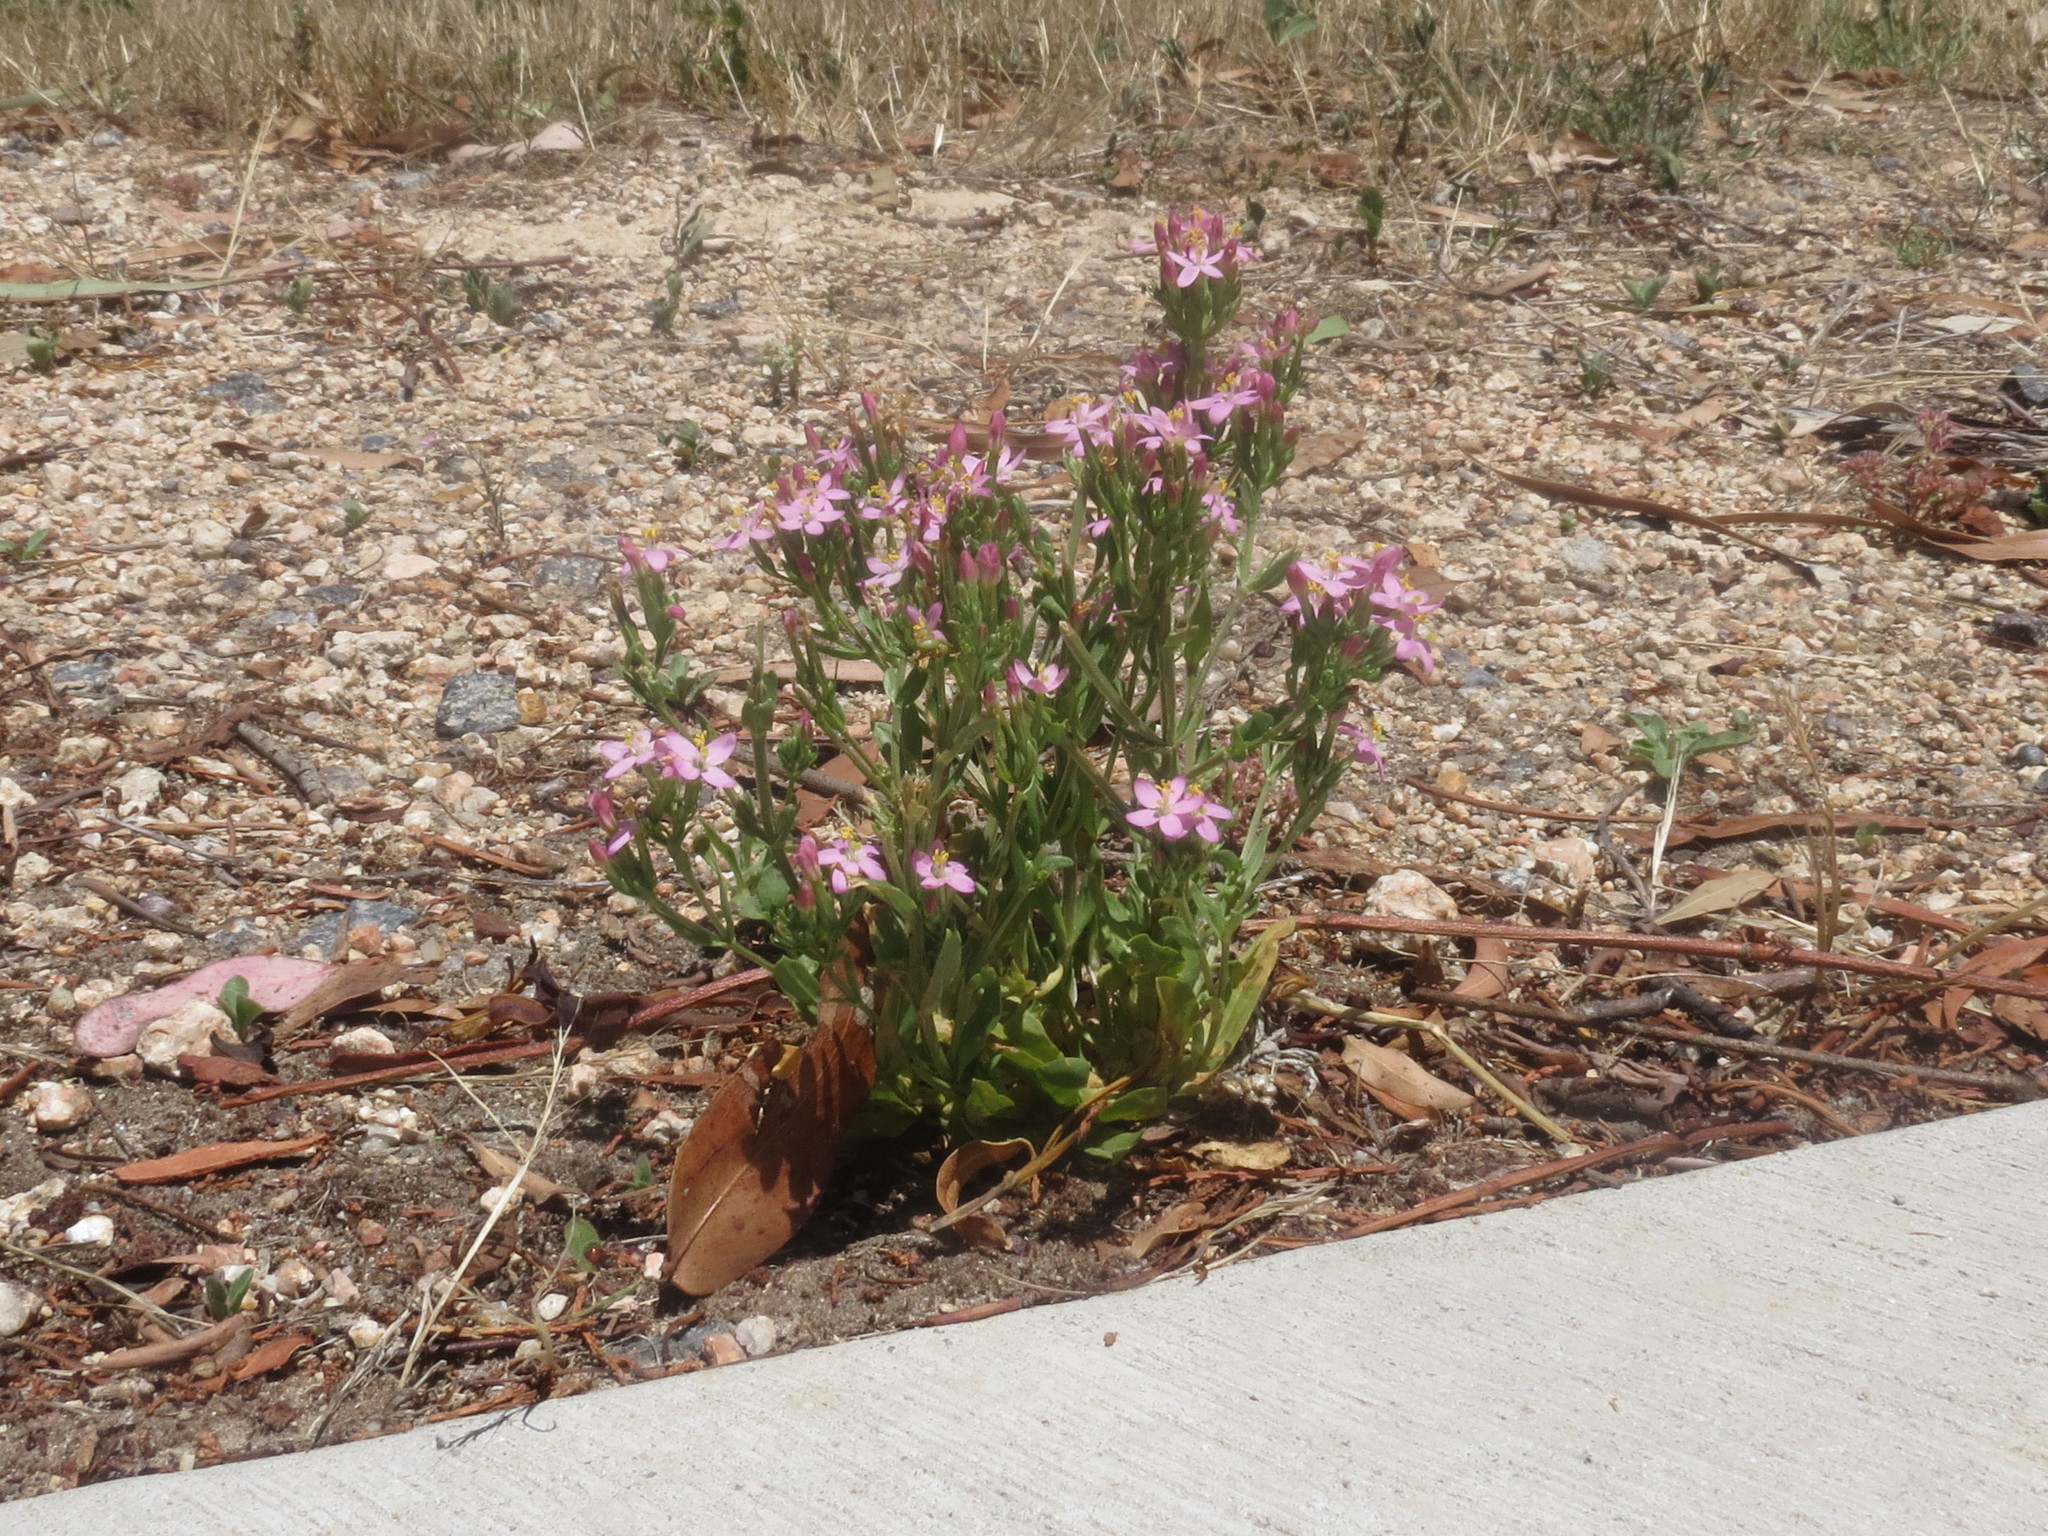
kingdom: Plantae
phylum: Tracheophyta
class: Magnoliopsida
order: Gentianales
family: Gentianaceae
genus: Centaurium
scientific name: Centaurium erythraea
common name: Common centaury
